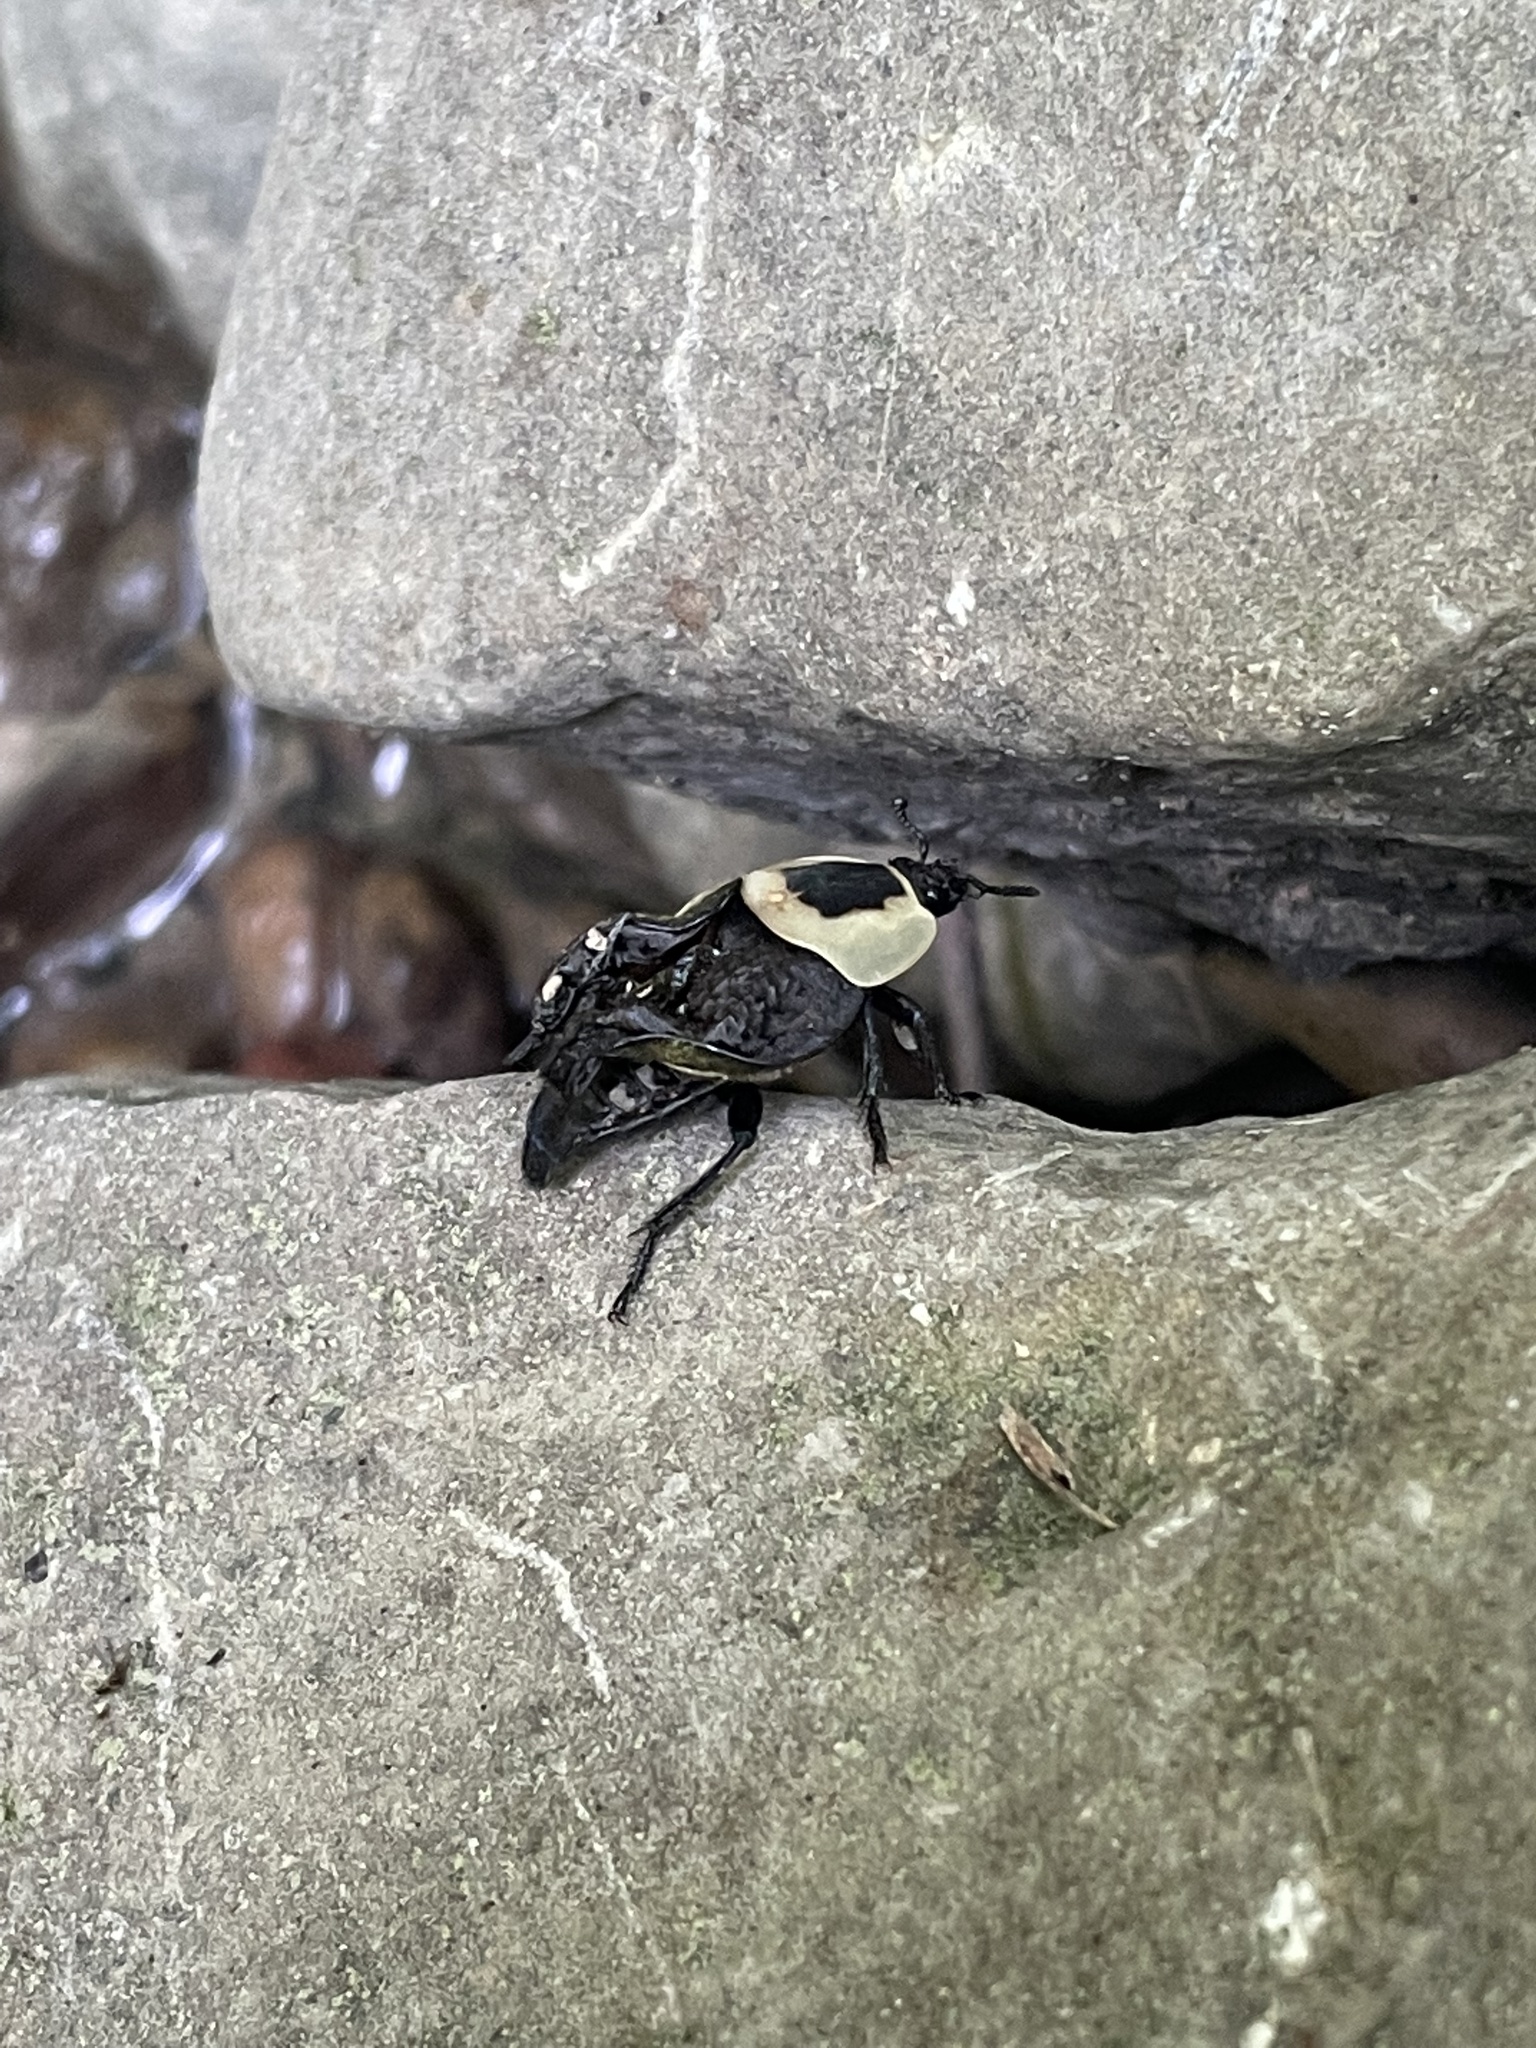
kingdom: Animalia
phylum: Arthropoda
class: Insecta
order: Coleoptera
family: Staphylinidae
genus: Necrophila
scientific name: Necrophila americana
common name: American carrion beetle
